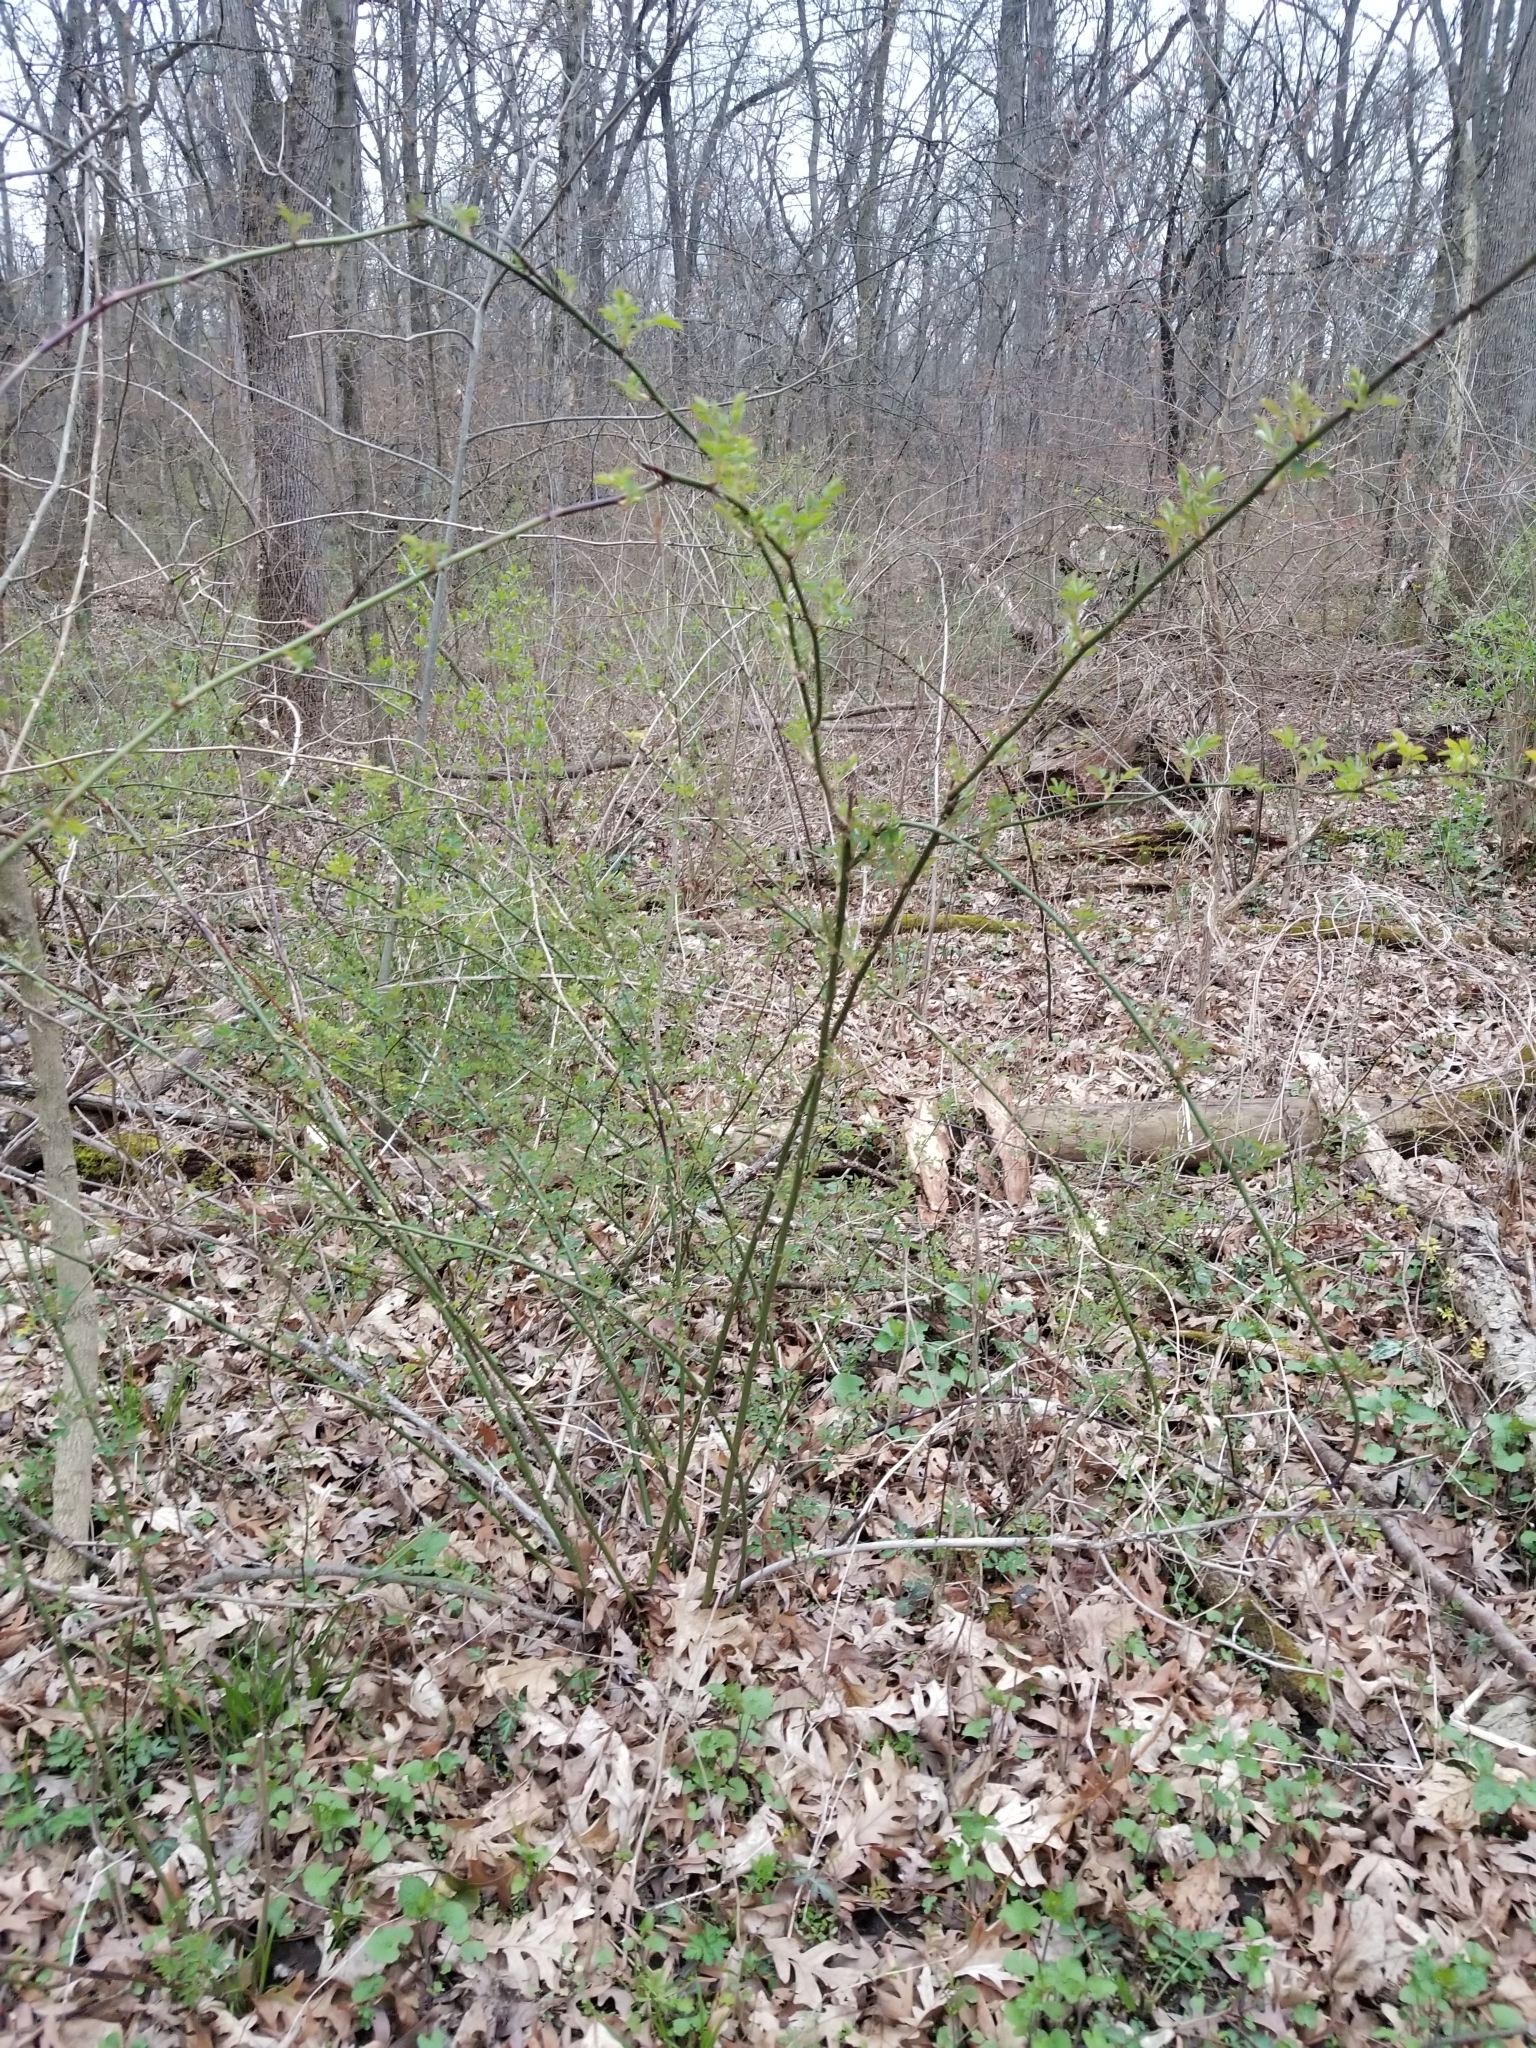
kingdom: Plantae
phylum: Tracheophyta
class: Magnoliopsida
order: Rosales
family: Rosaceae
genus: Rosa
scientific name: Rosa multiflora
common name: Multiflora rose
